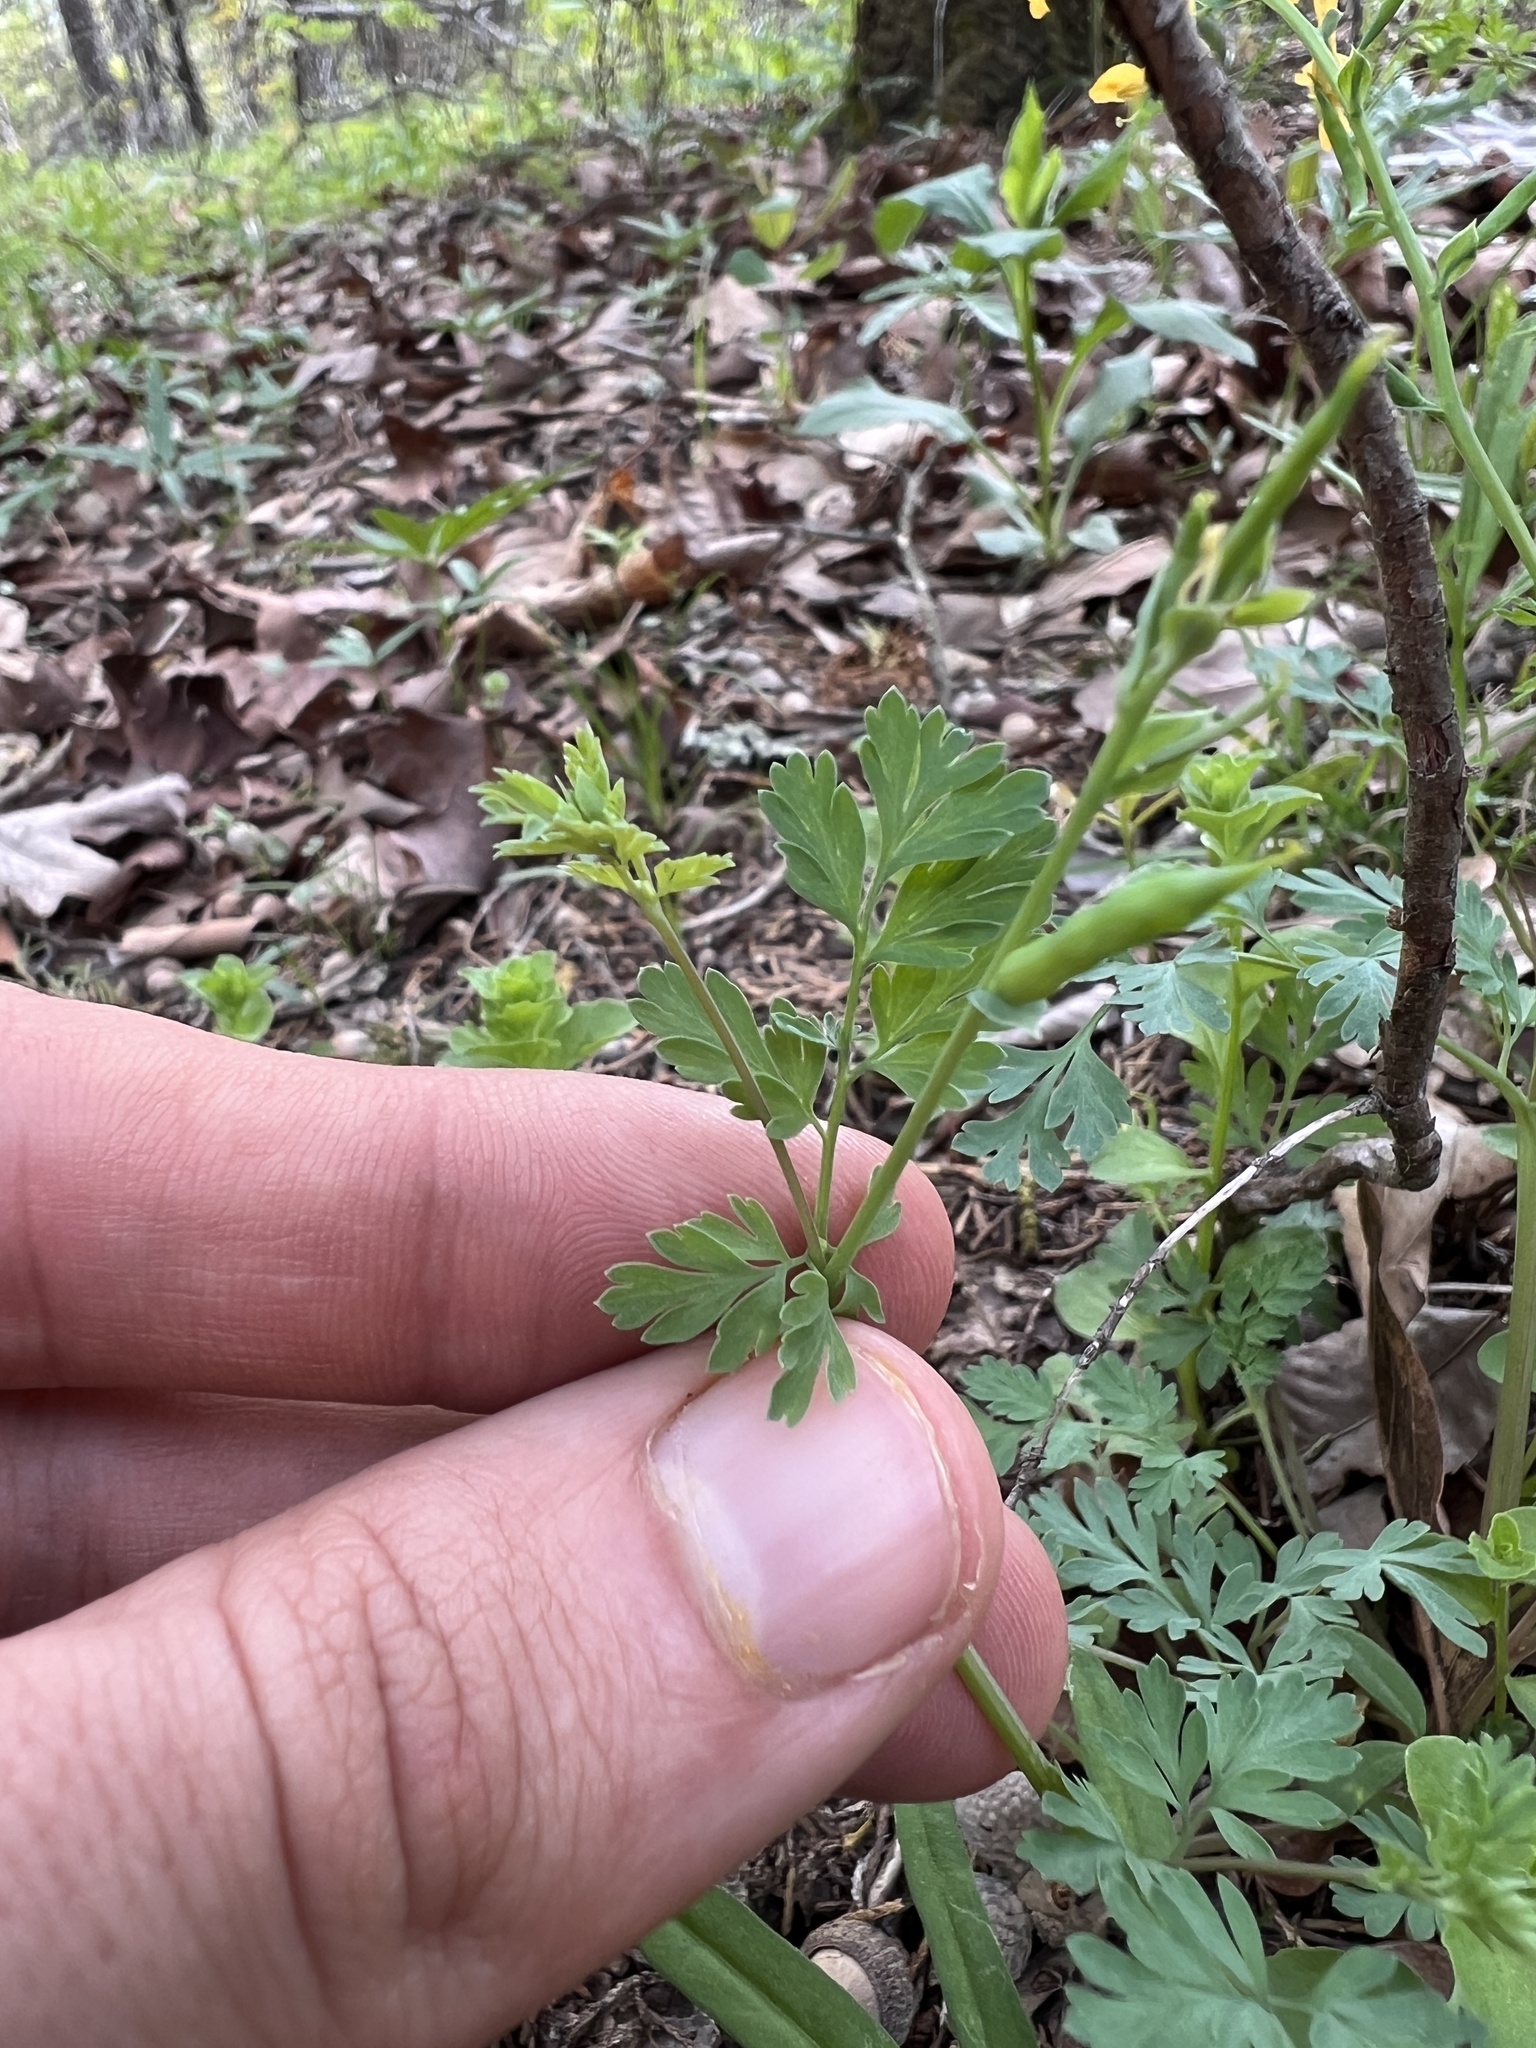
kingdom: Plantae
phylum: Tracheophyta
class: Magnoliopsida
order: Ranunculales
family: Papaveraceae
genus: Corydalis
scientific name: Corydalis curvisiliqua
